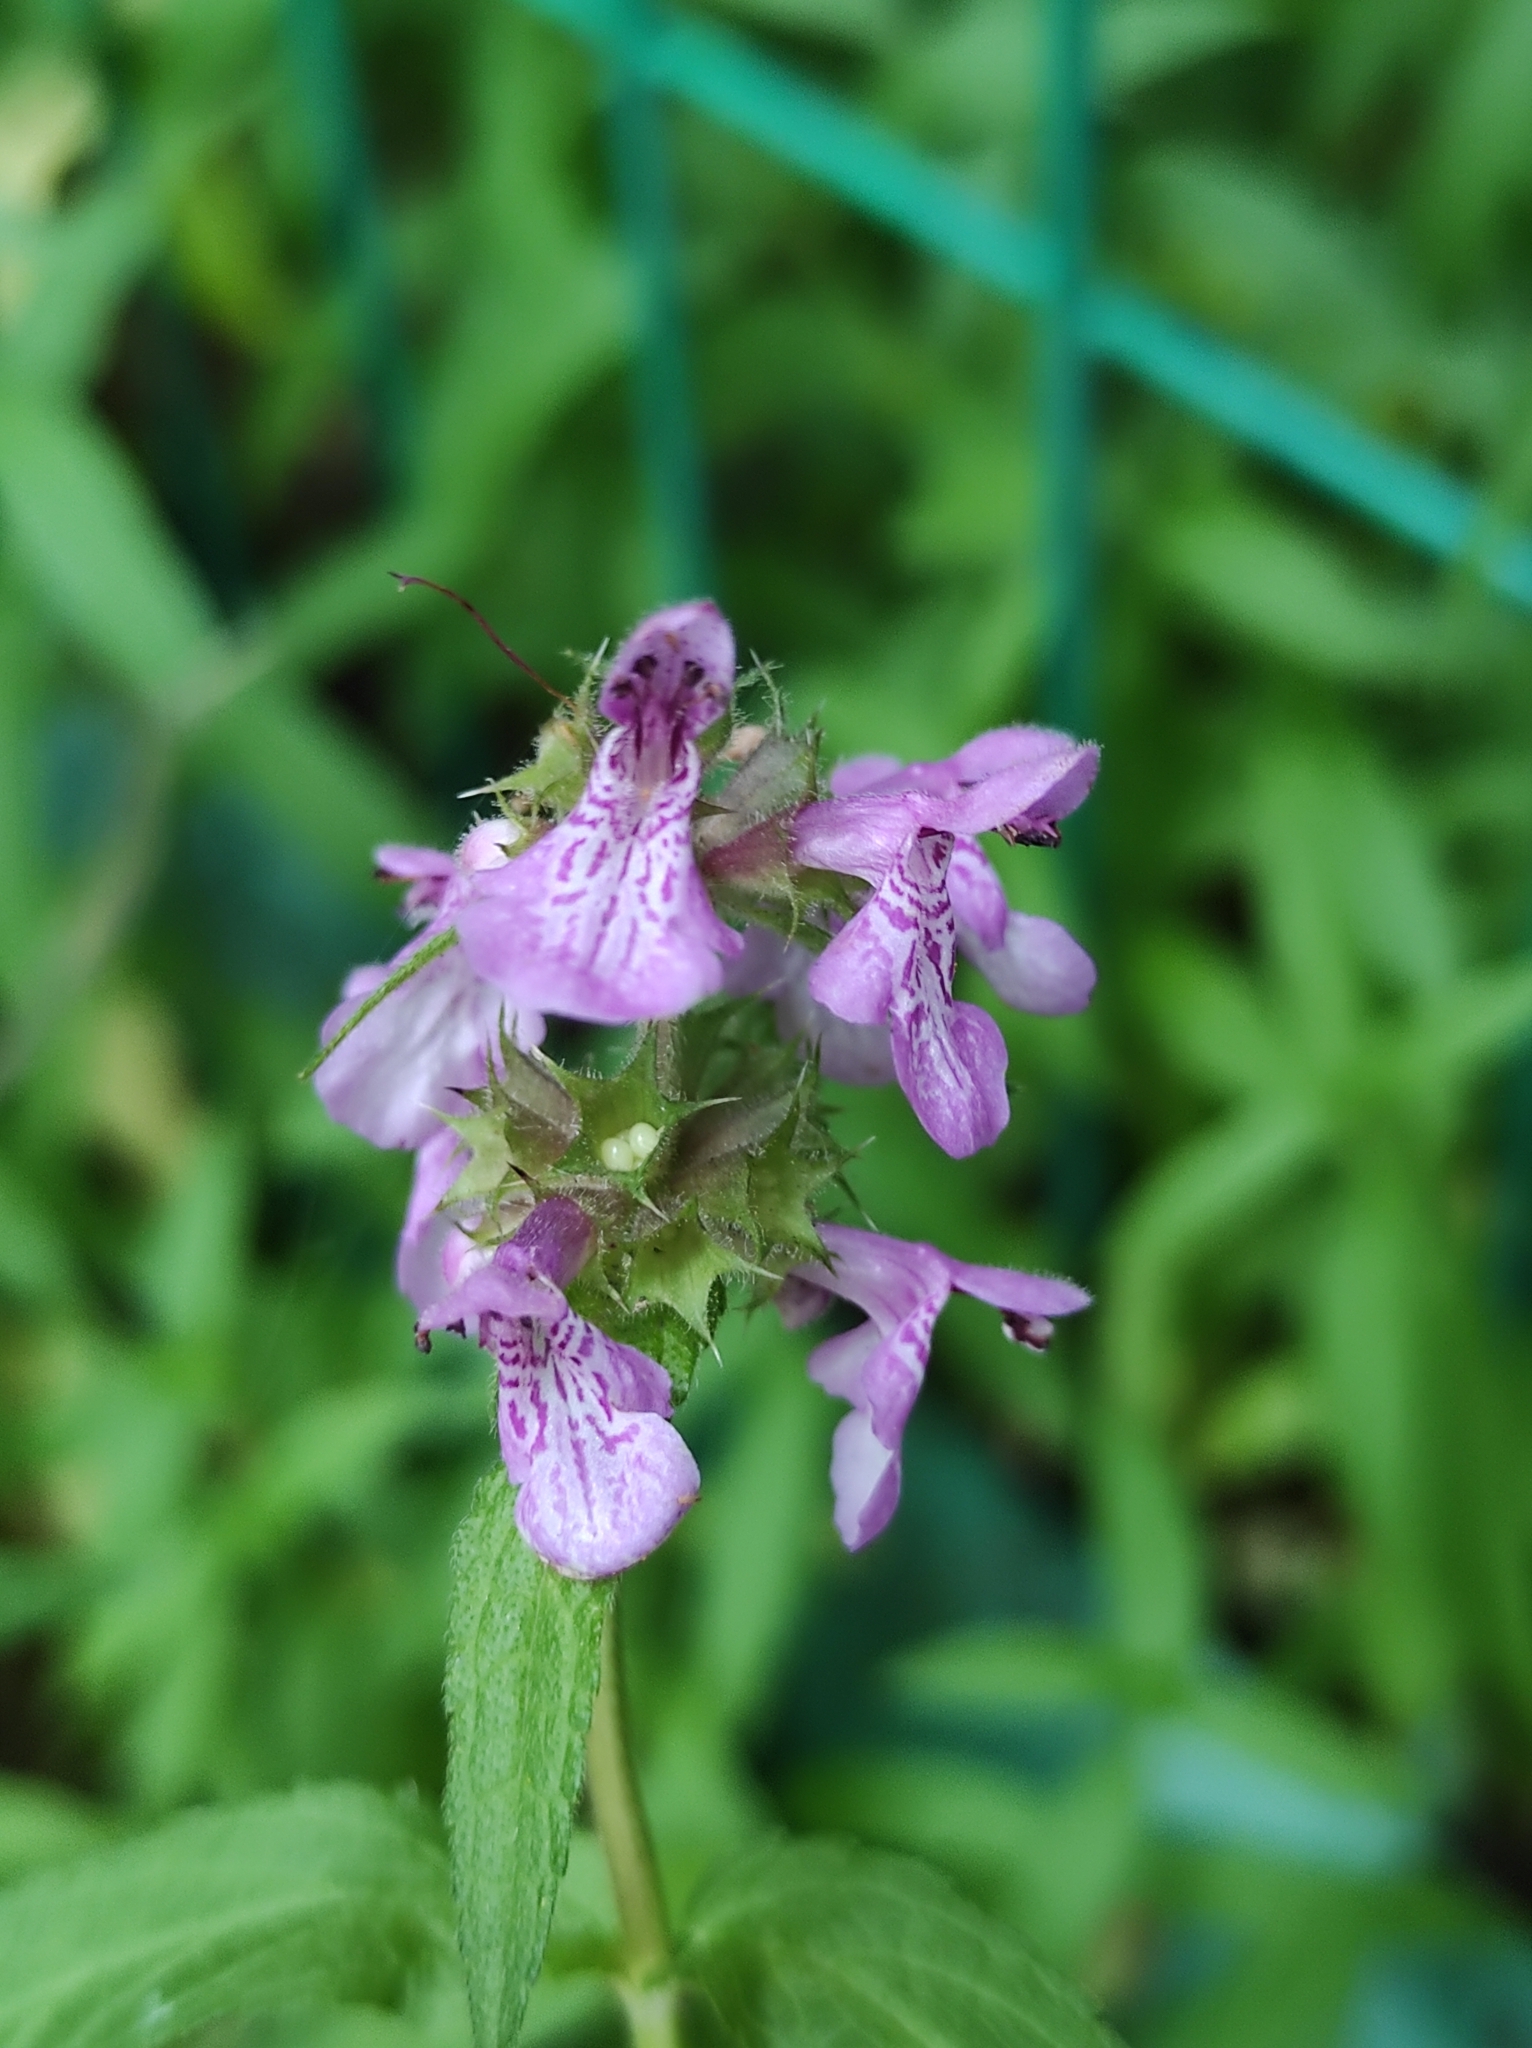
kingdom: Plantae
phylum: Tracheophyta
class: Magnoliopsida
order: Lamiales
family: Lamiaceae
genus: Stachys
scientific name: Stachys palustris
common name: Marsh woundwort
